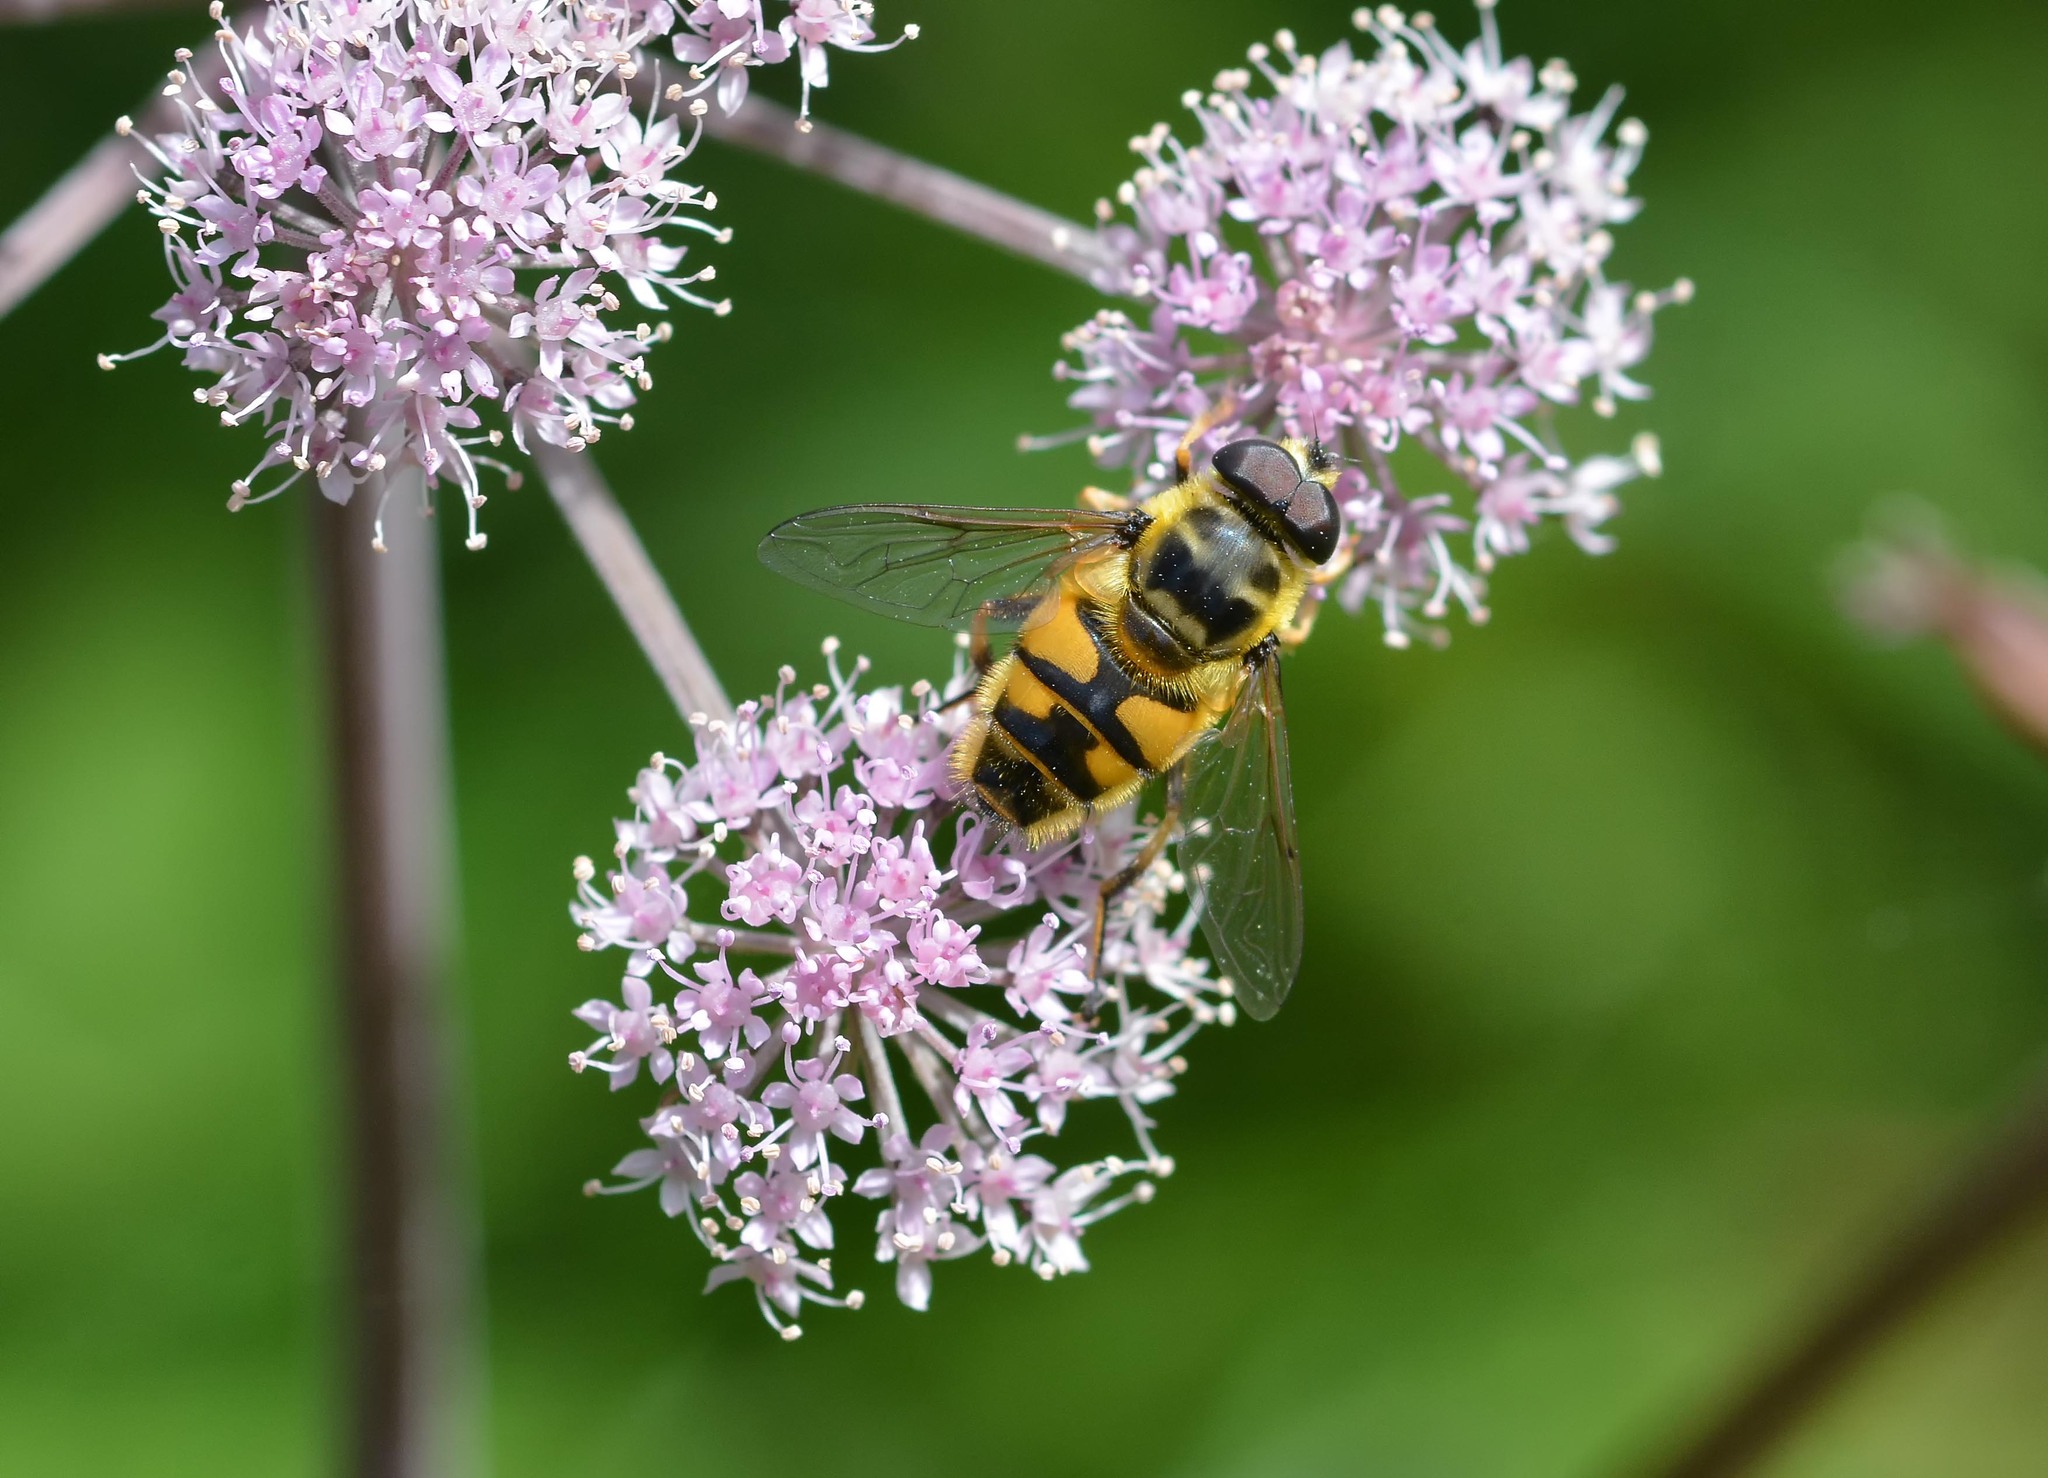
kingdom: Animalia
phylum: Arthropoda
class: Insecta
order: Diptera
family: Syrphidae
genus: Myathropa
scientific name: Myathropa florea
